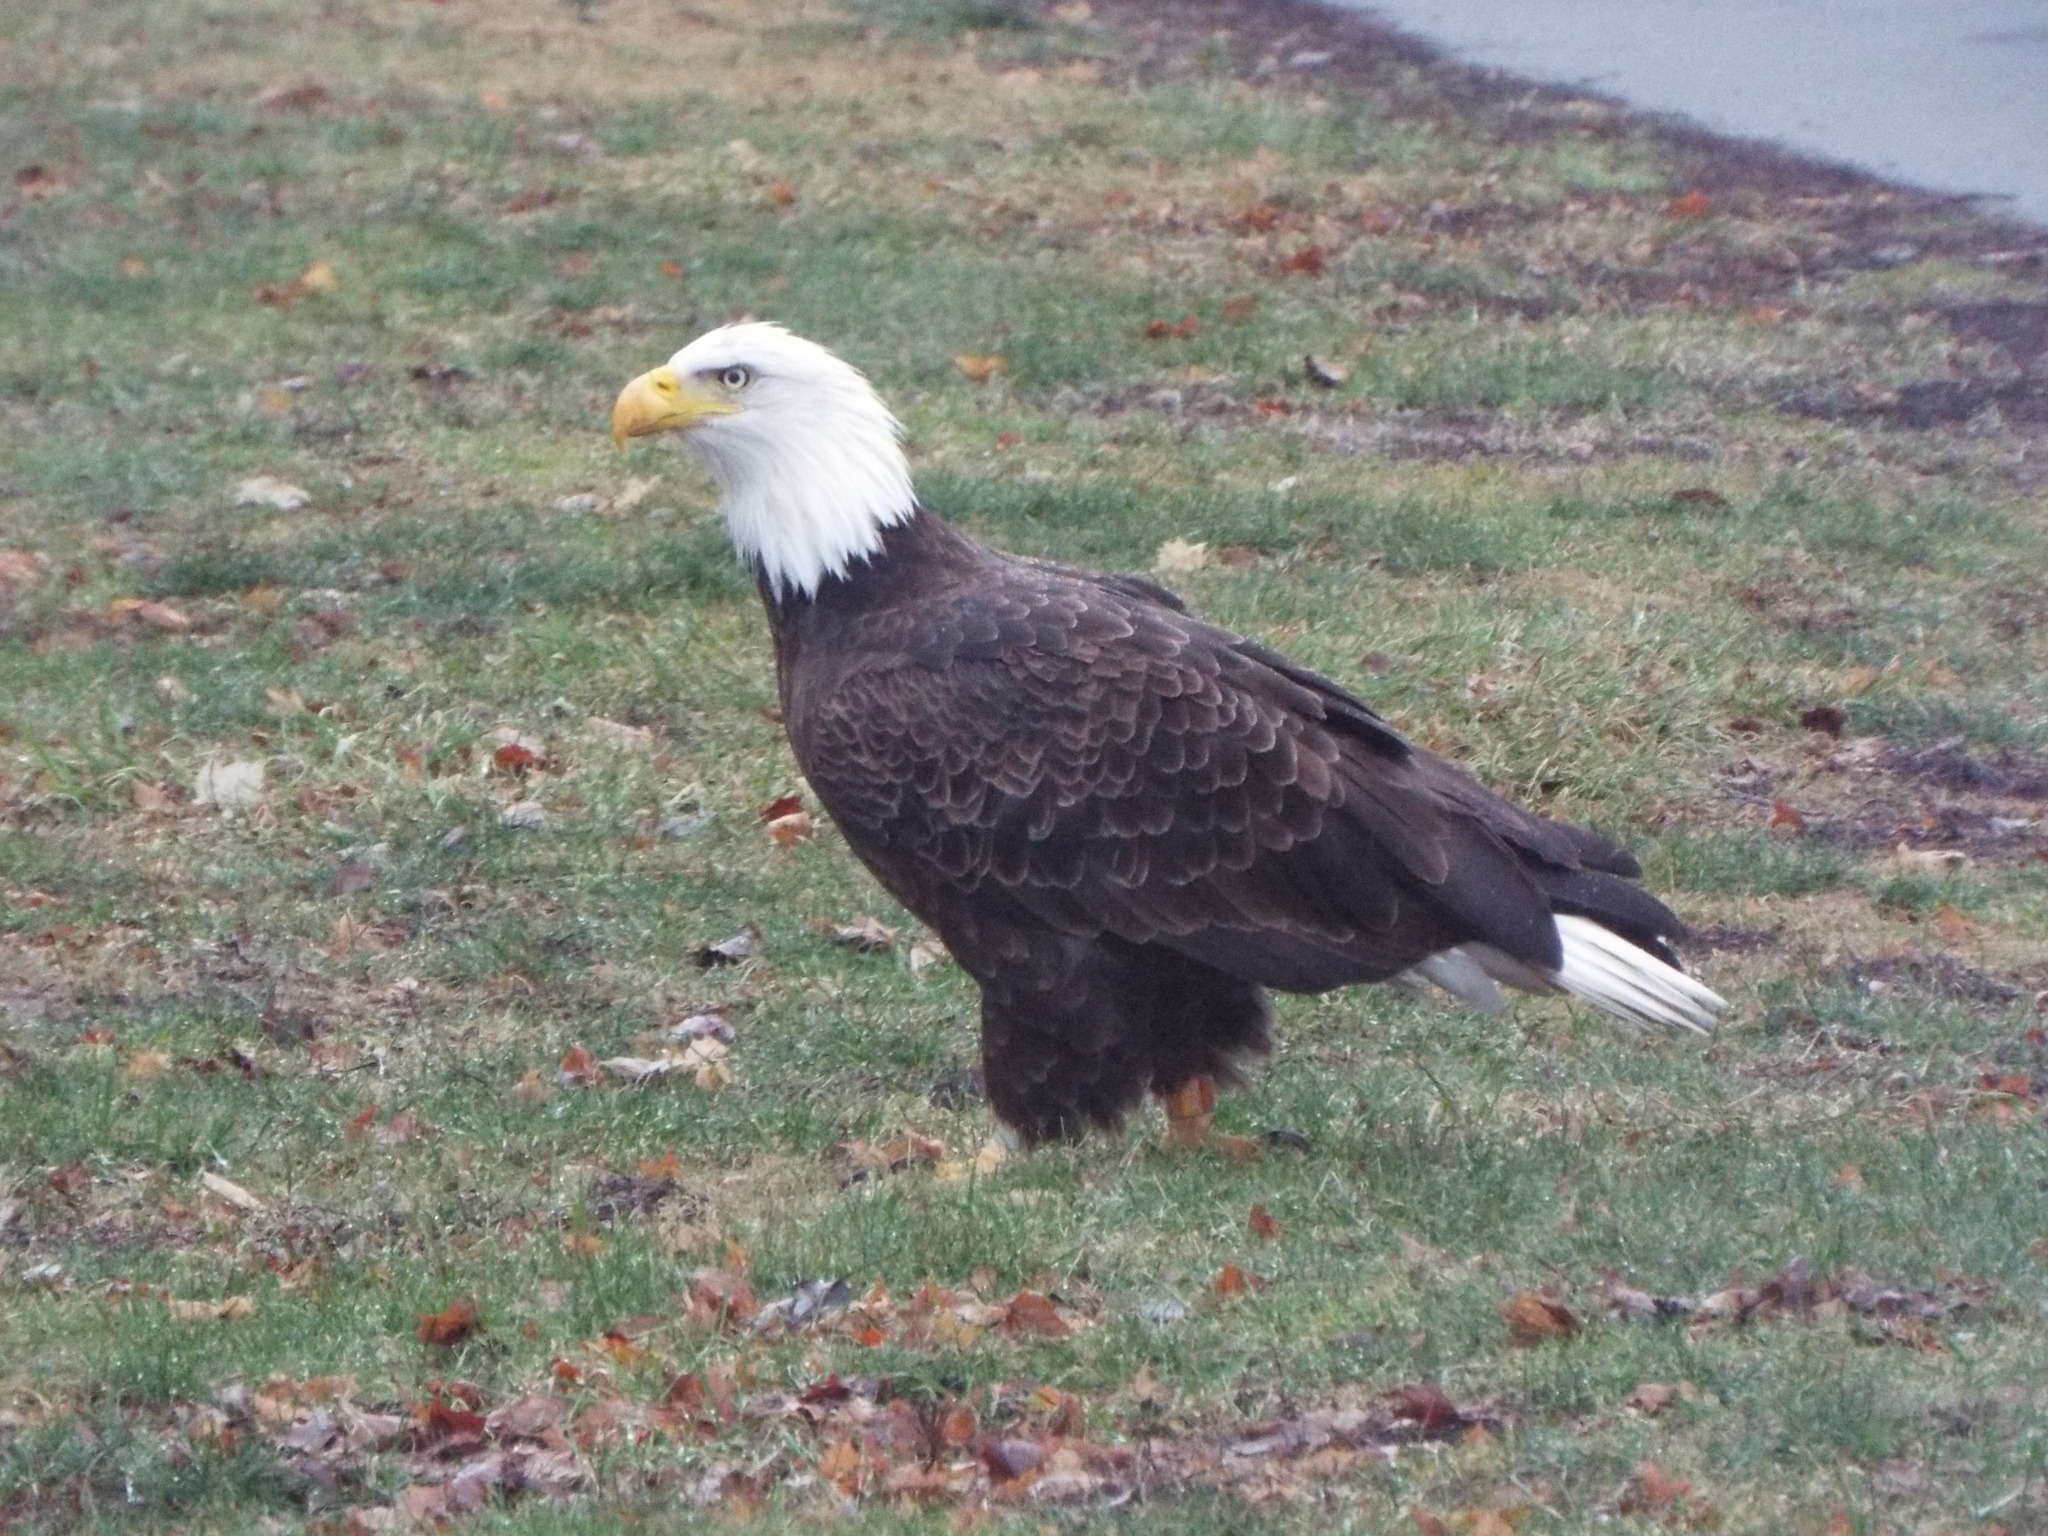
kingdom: Animalia
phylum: Chordata
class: Aves
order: Accipitriformes
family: Accipitridae
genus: Haliaeetus
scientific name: Haliaeetus leucocephalus
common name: Bald eagle
